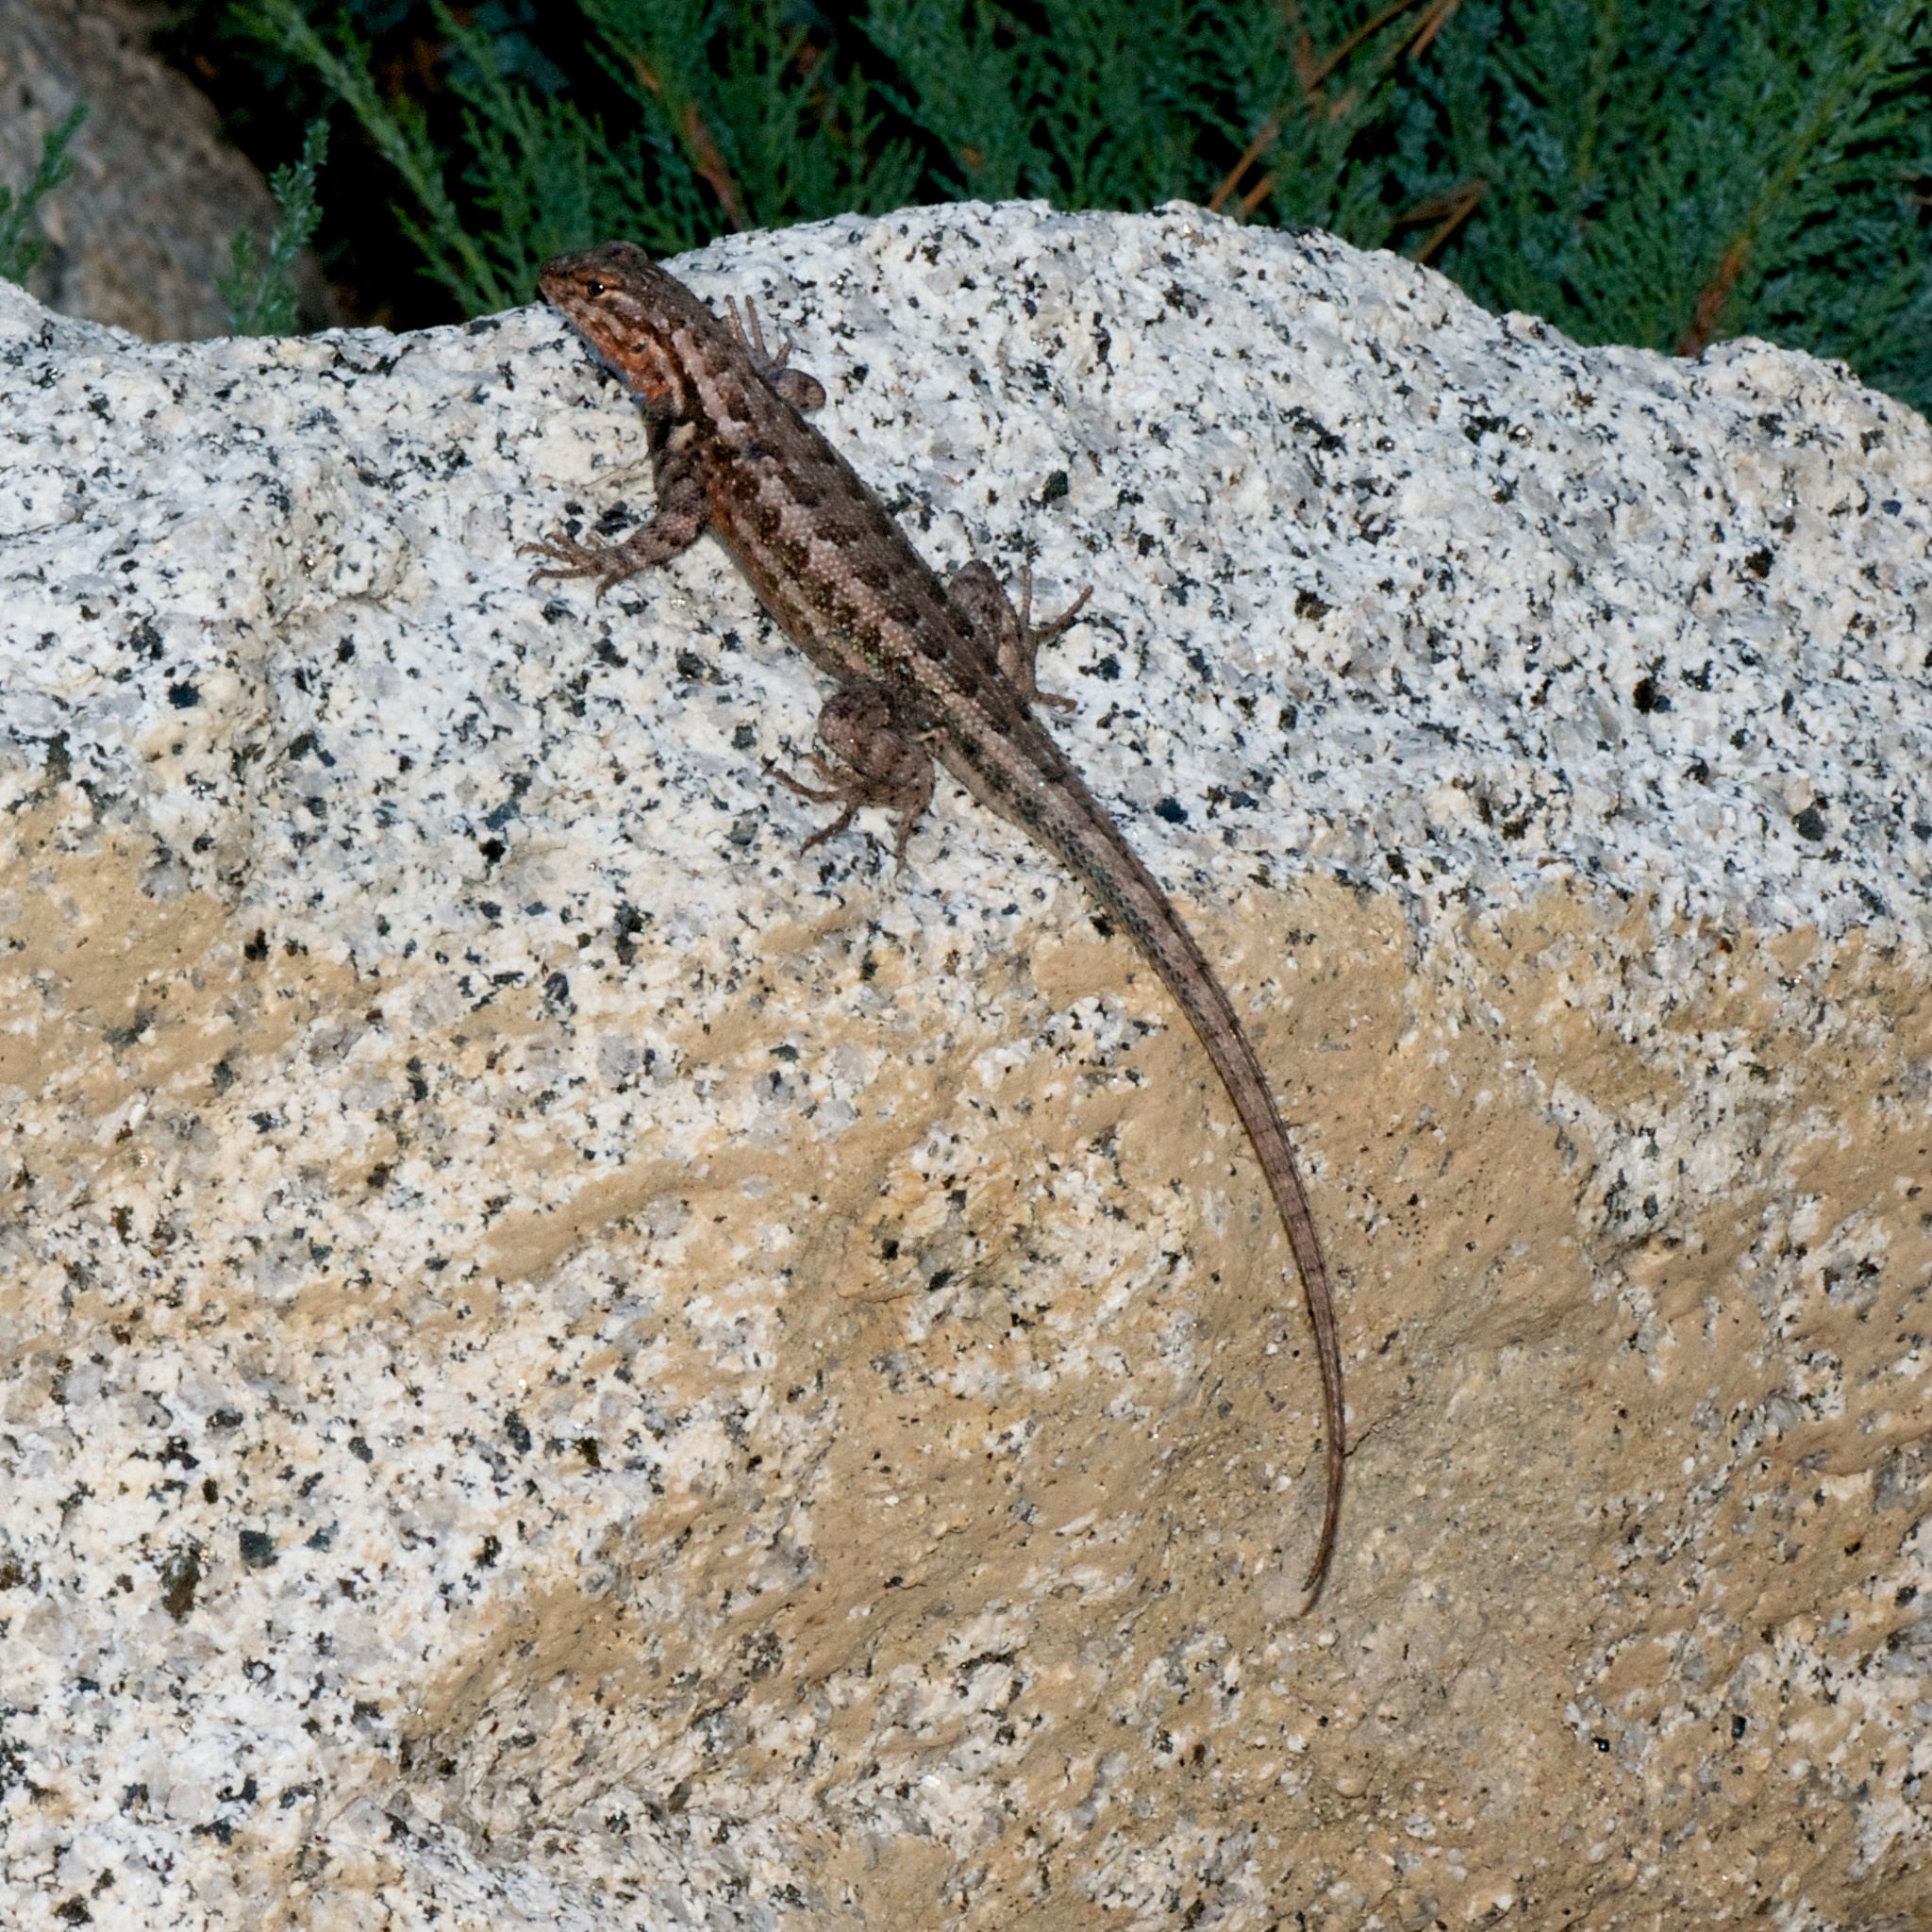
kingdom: Animalia
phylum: Chordata
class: Squamata
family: Phrynosomatidae
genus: Sceloporus
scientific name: Sceloporus graciosus
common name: Sagebrush lizard
